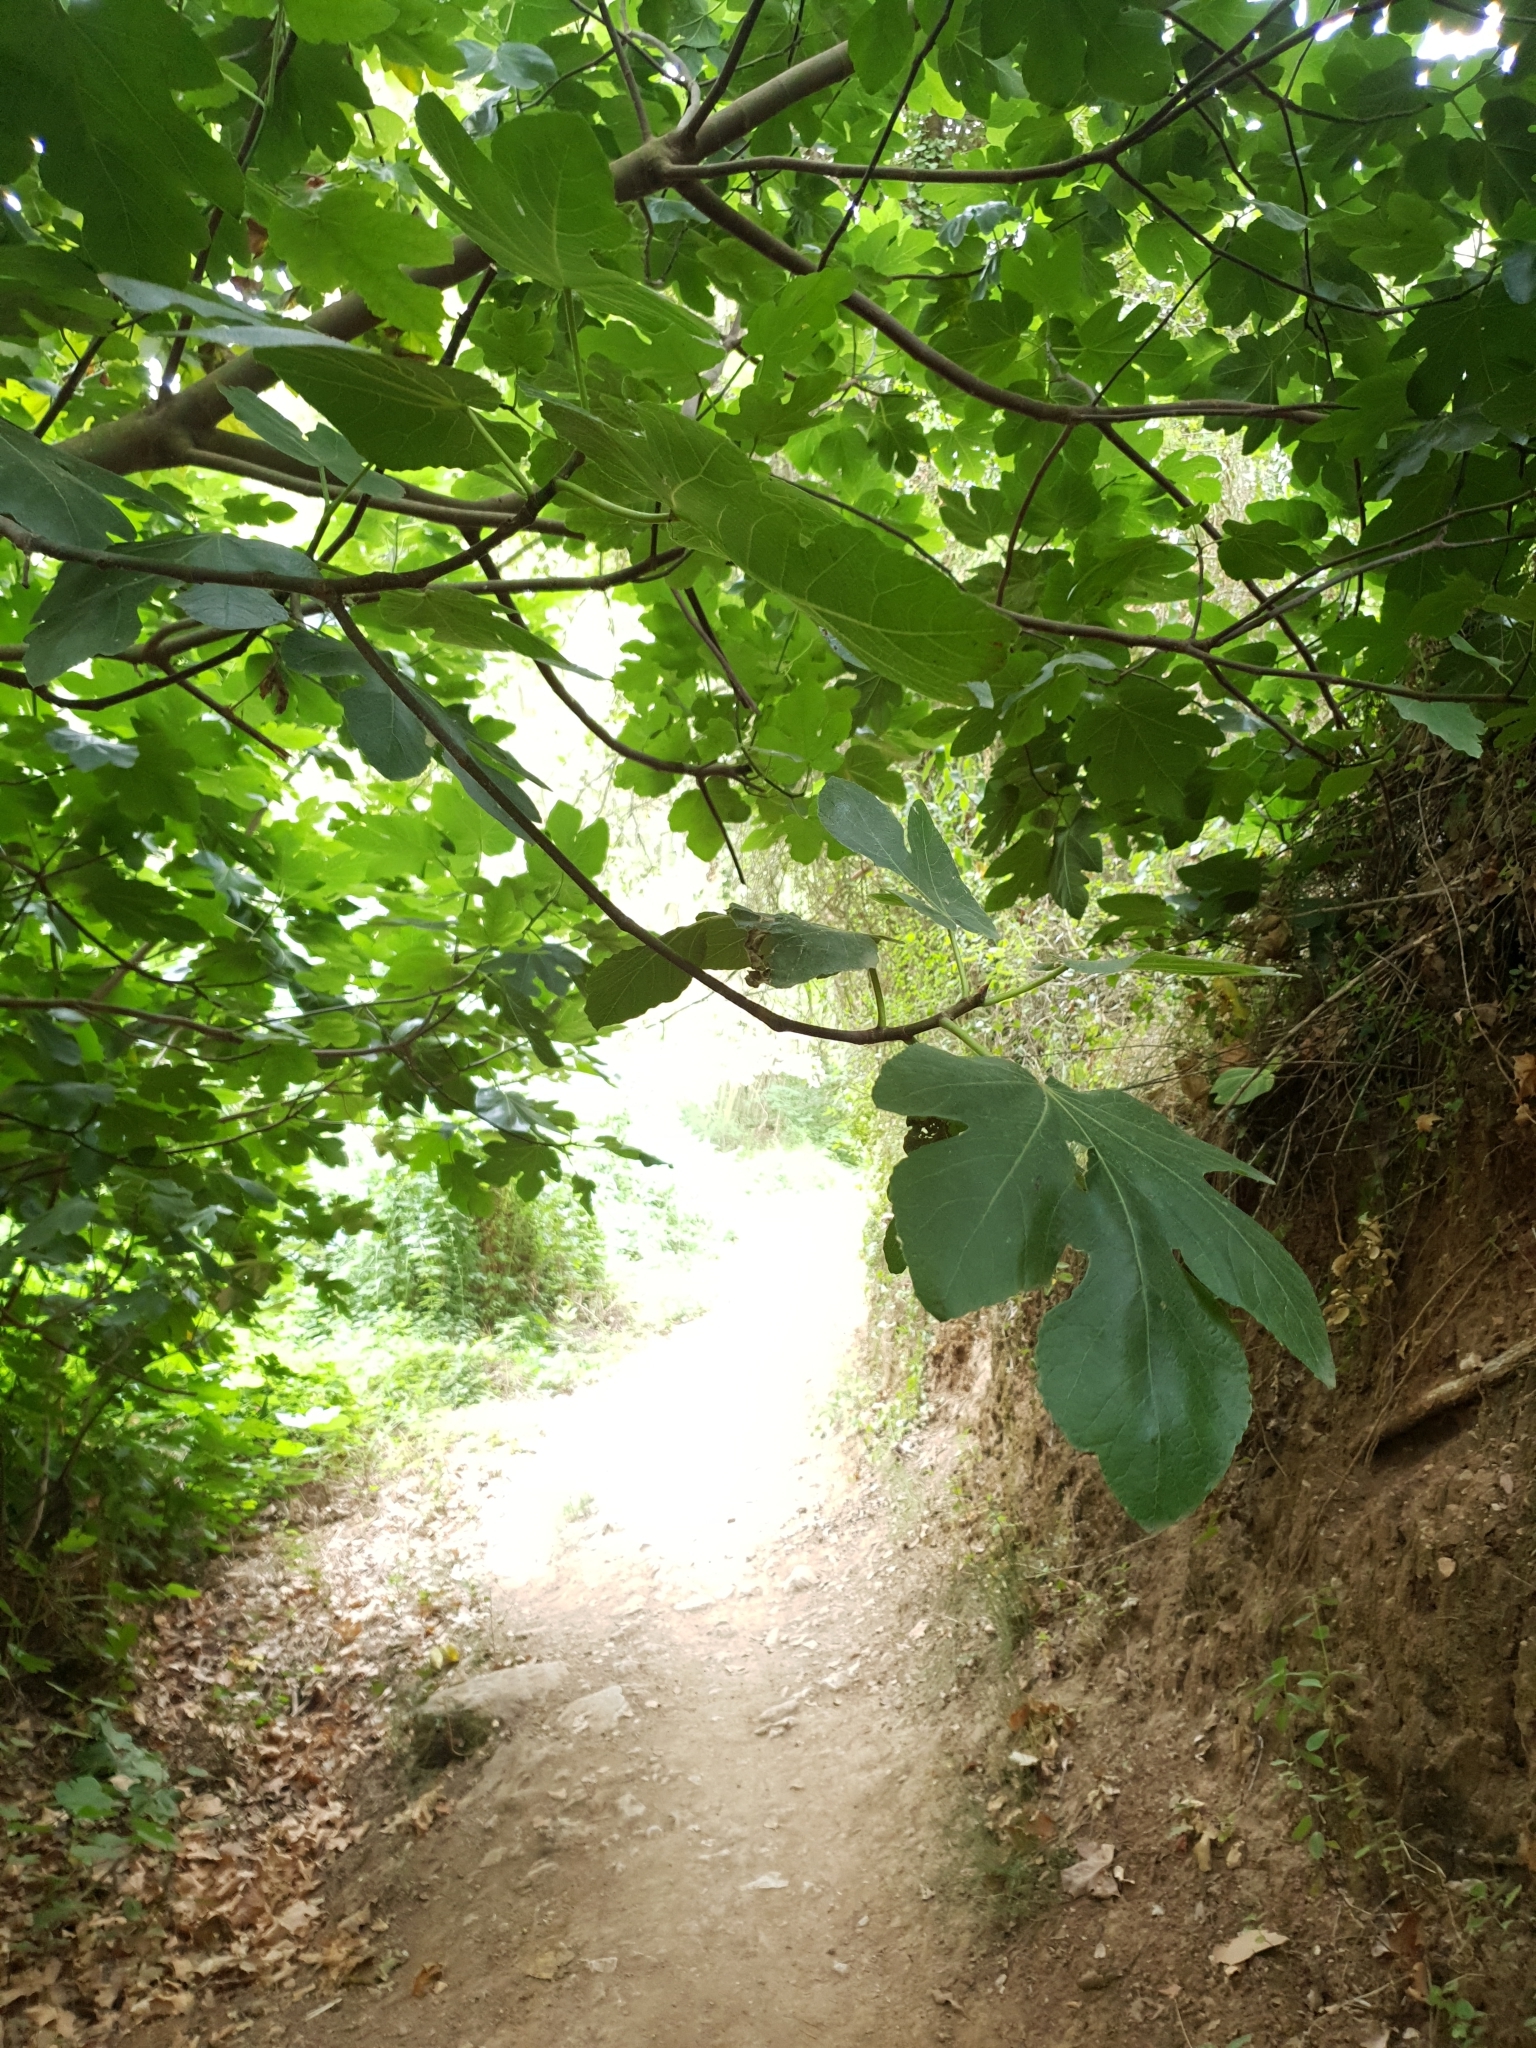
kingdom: Plantae
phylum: Tracheophyta
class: Magnoliopsida
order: Rosales
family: Moraceae
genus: Ficus
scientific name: Ficus carica
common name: Fig
